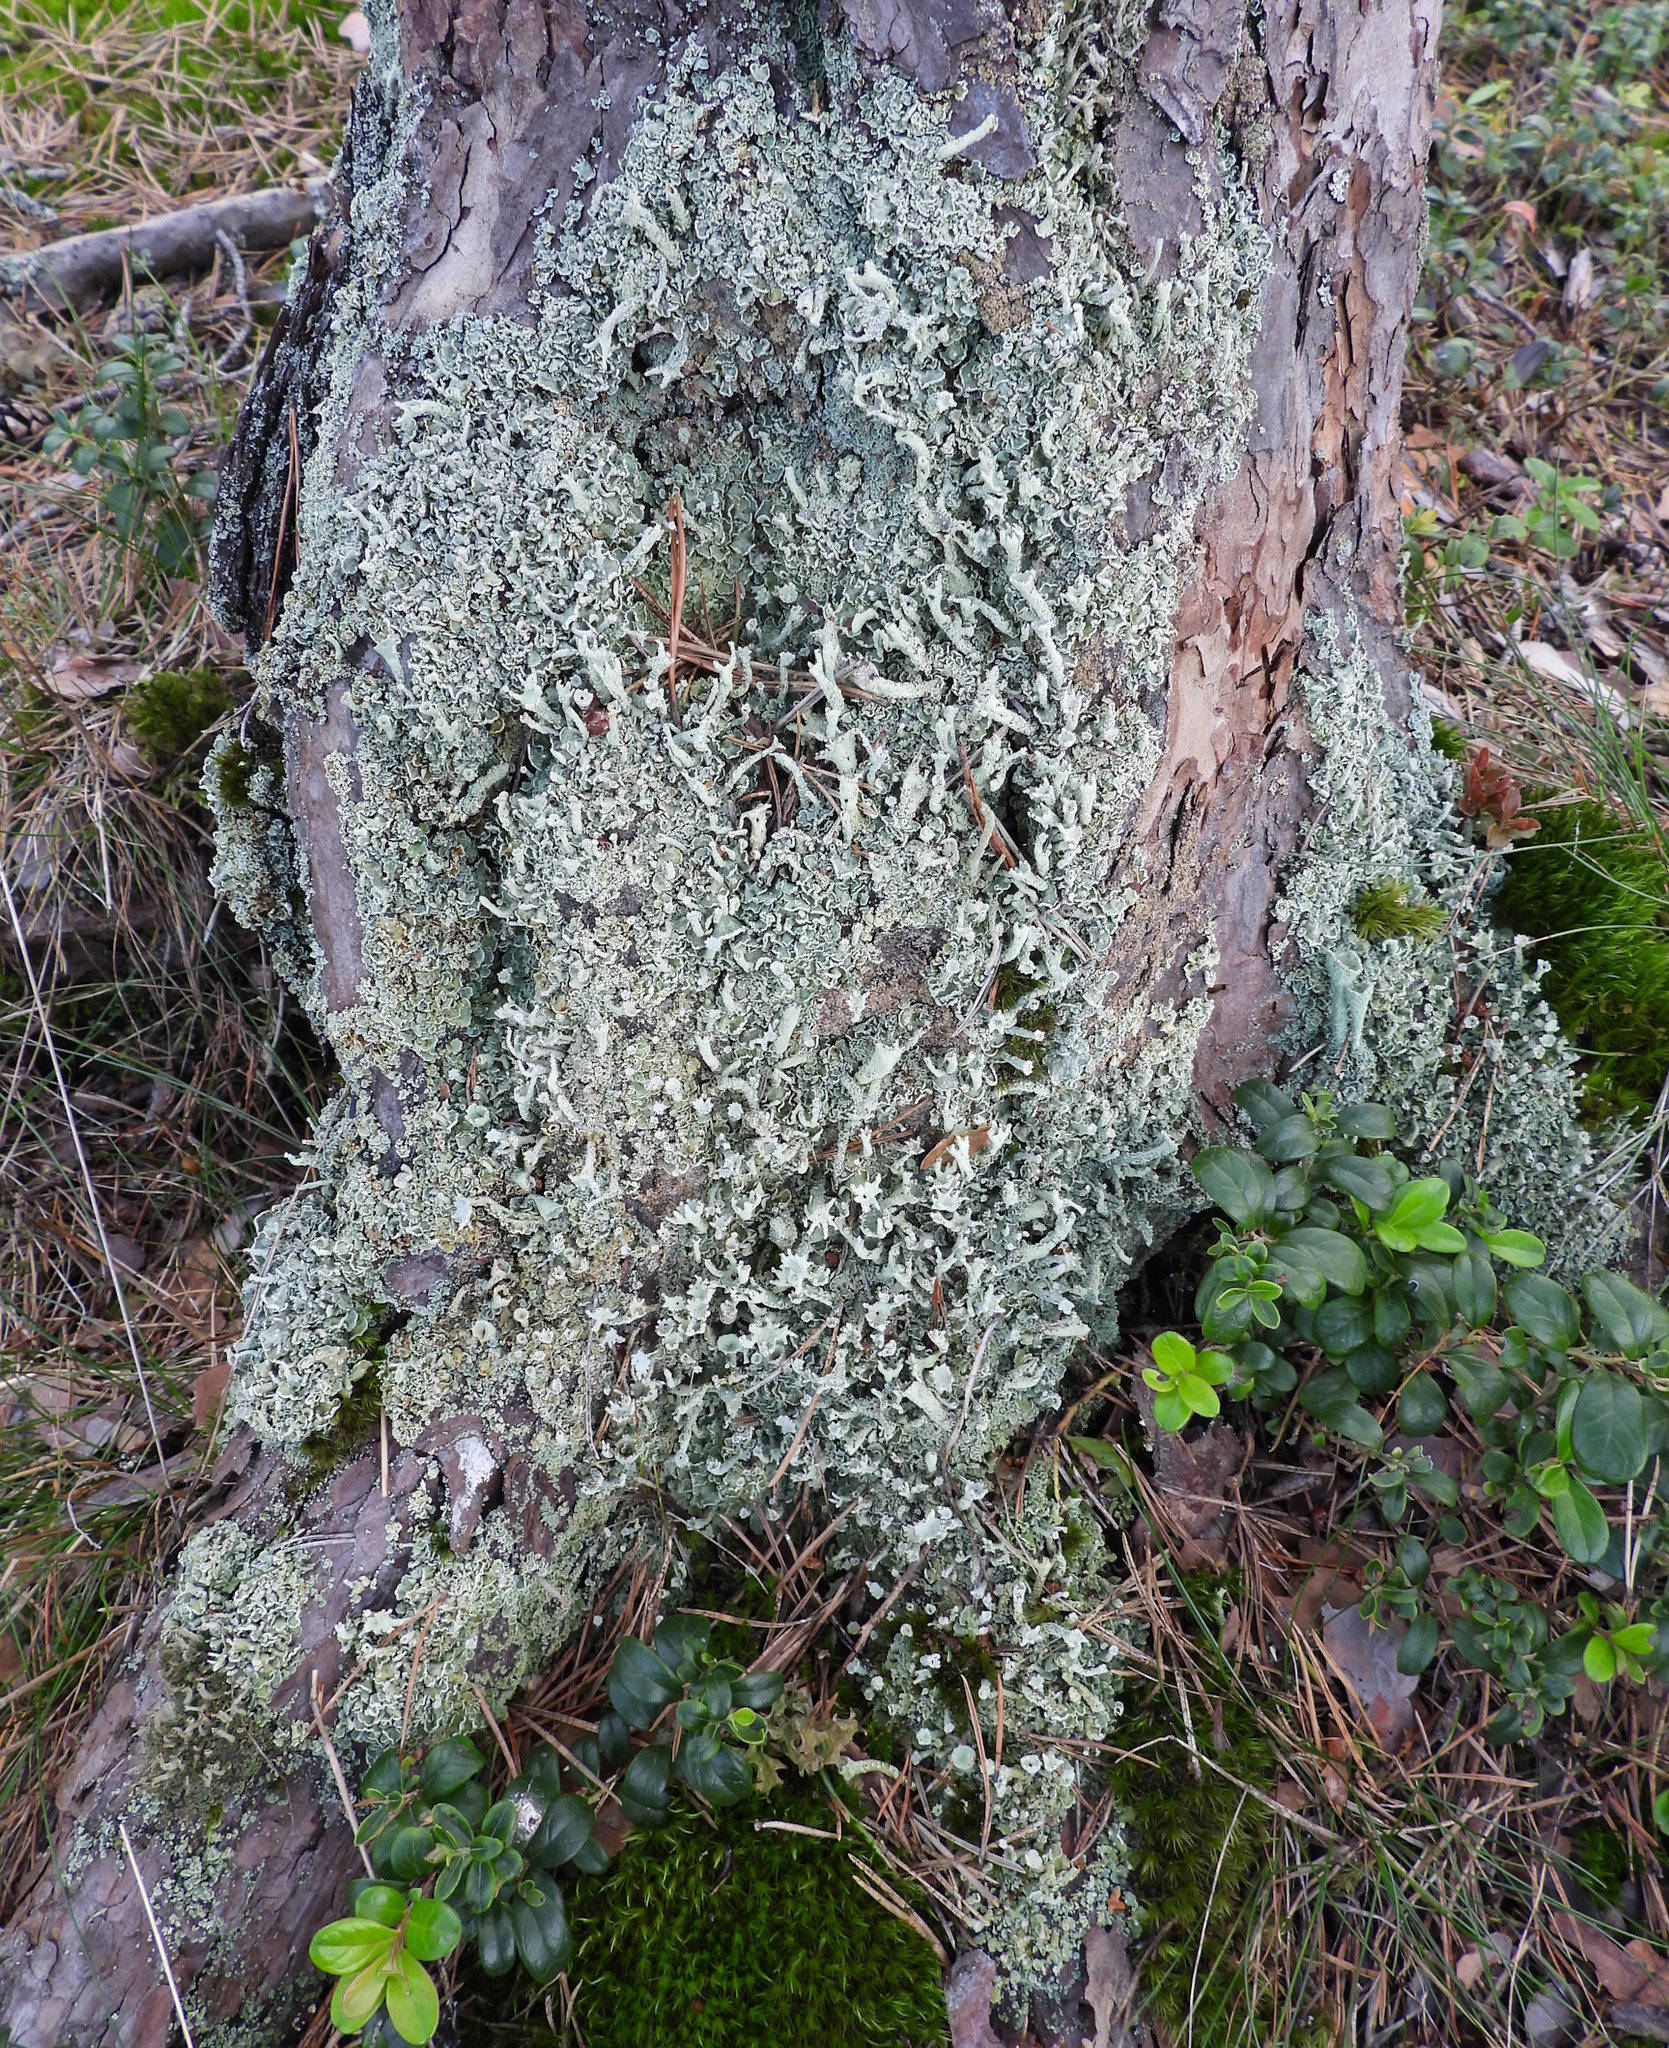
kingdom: Fungi
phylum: Ascomycota
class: Lecanoromycetes
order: Lecanorales
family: Cladoniaceae
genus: Cladonia
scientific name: Cladonia digitata
